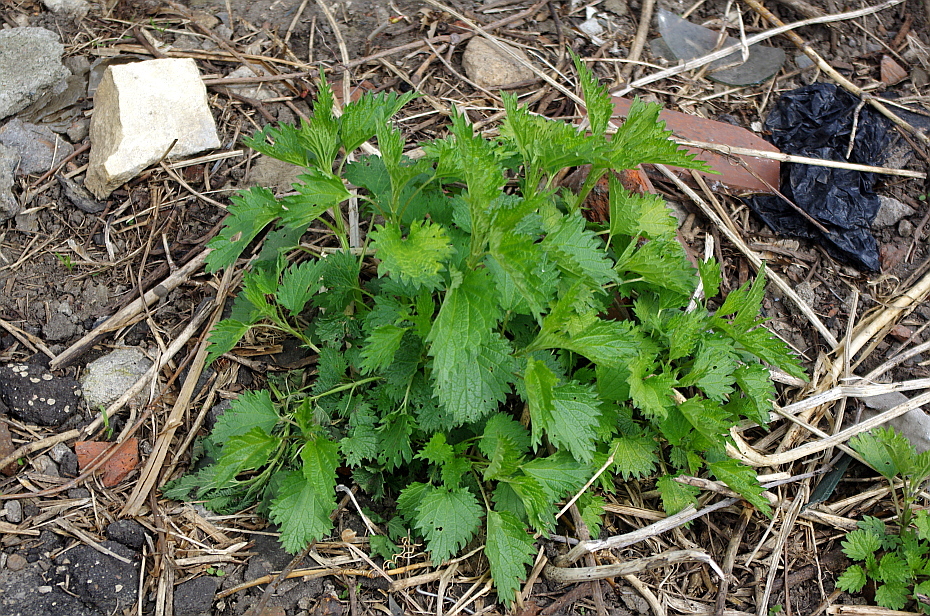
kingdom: Plantae
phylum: Tracheophyta
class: Magnoliopsida
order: Rosales
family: Urticaceae
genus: Urtica
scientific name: Urtica dioica
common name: Common nettle
